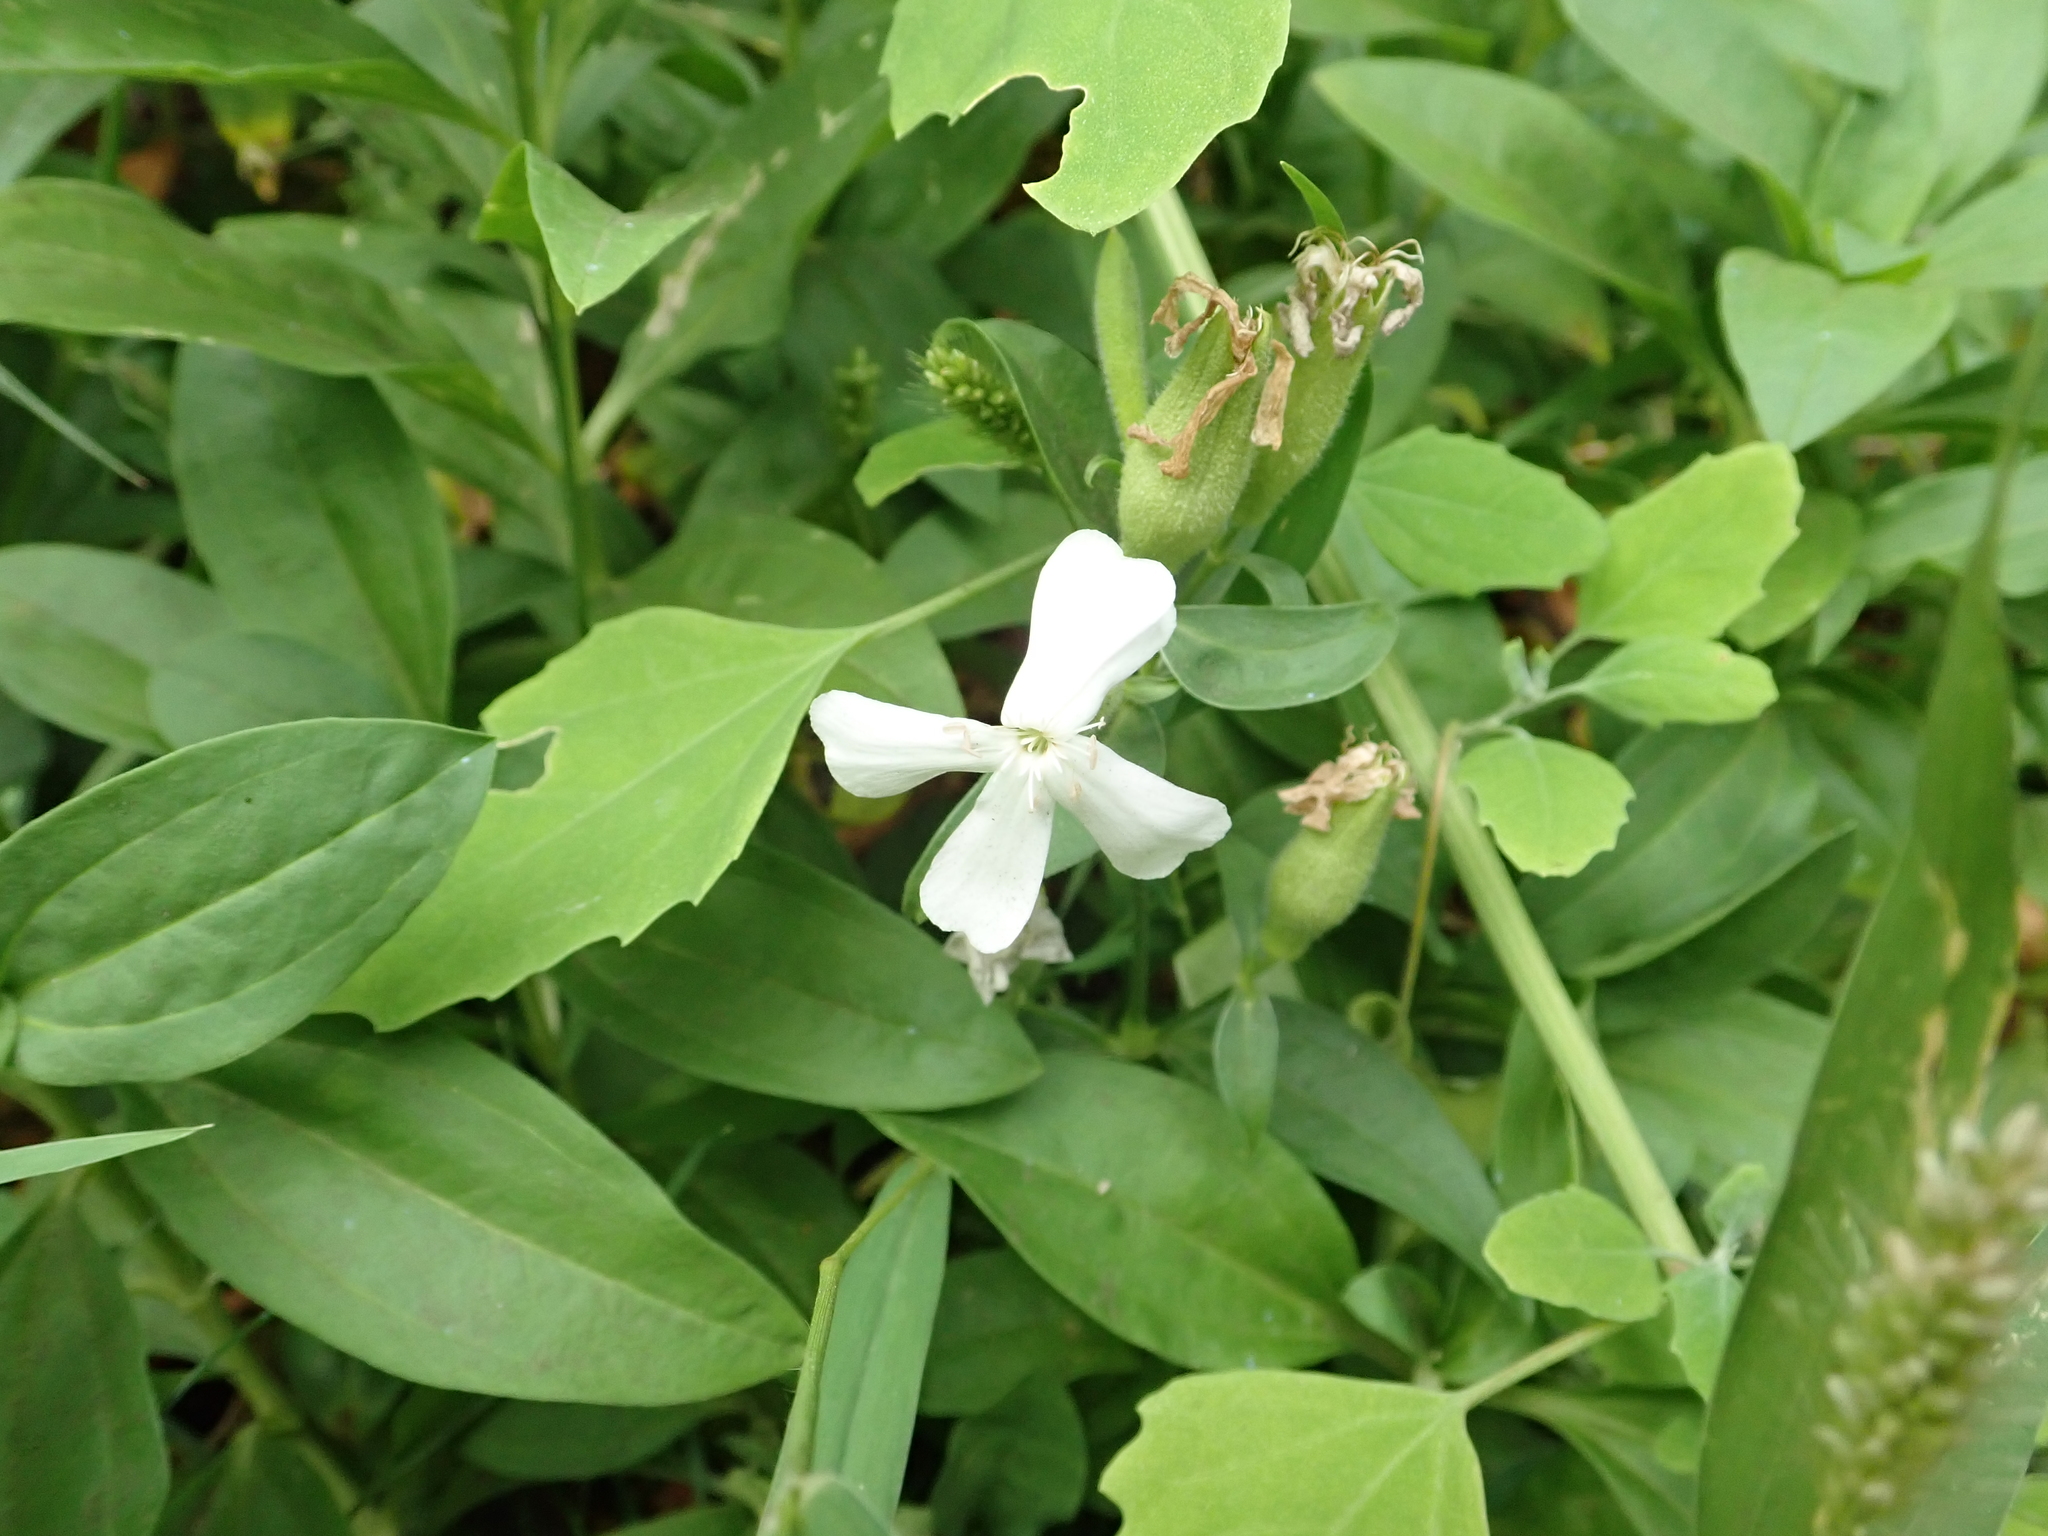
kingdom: Plantae
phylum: Tracheophyta
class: Magnoliopsida
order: Caryophyllales
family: Caryophyllaceae
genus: Saponaria
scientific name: Saponaria officinalis
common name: Soapwort
